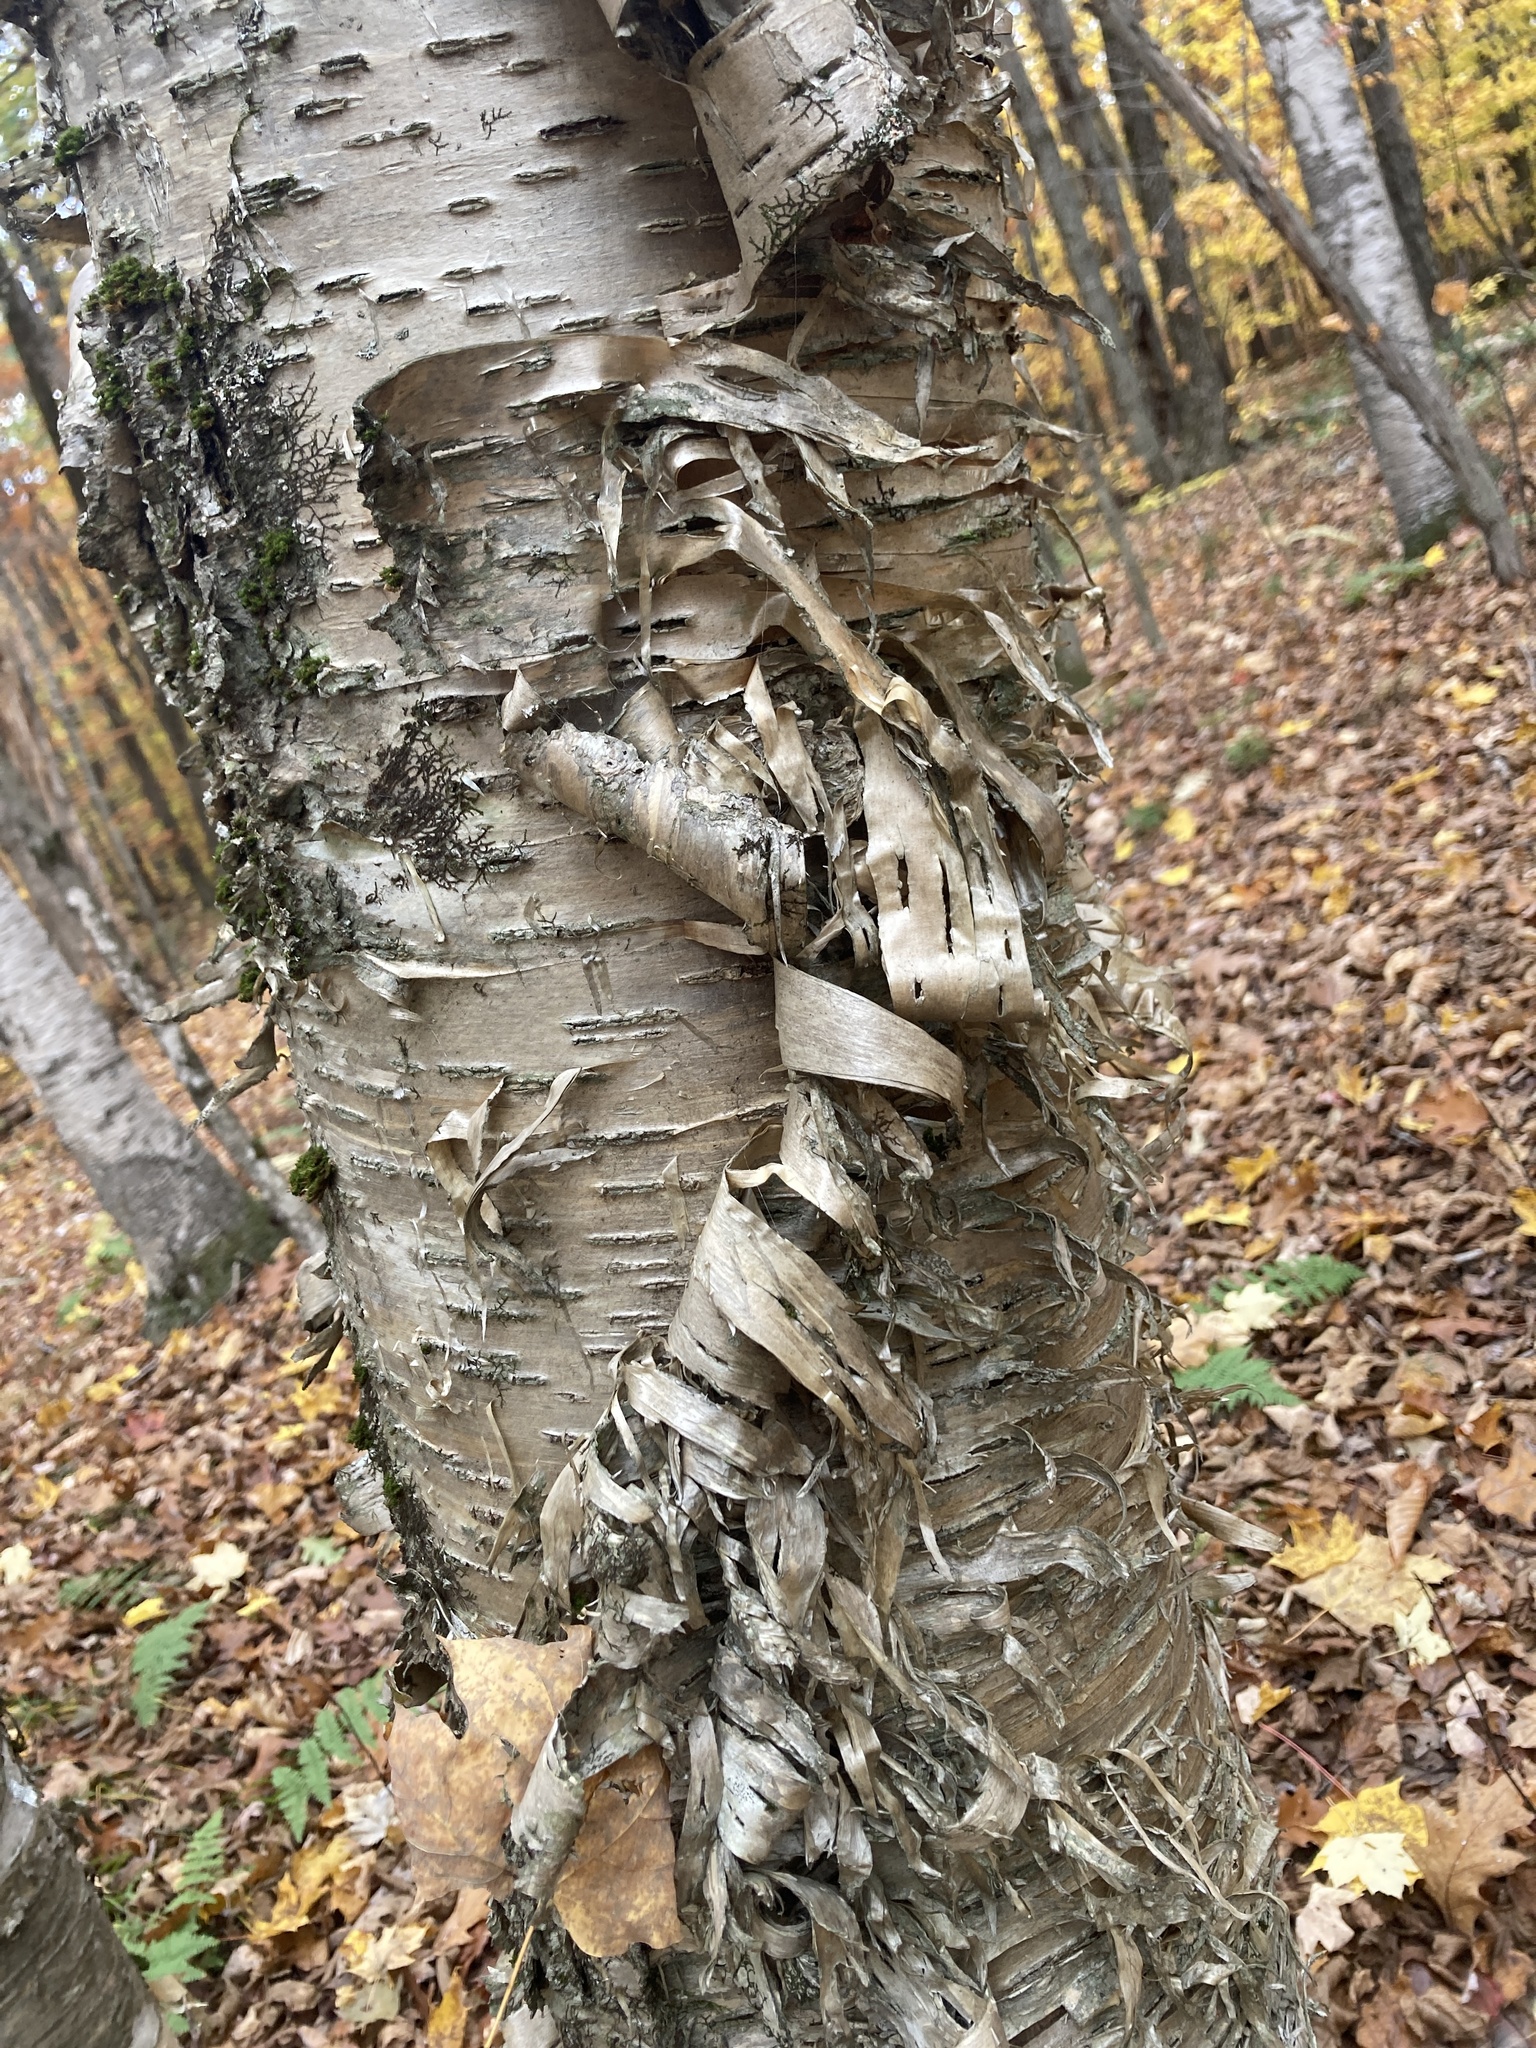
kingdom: Plantae
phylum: Tracheophyta
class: Magnoliopsida
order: Fagales
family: Betulaceae
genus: Betula
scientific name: Betula alleghaniensis
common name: Yellow birch
